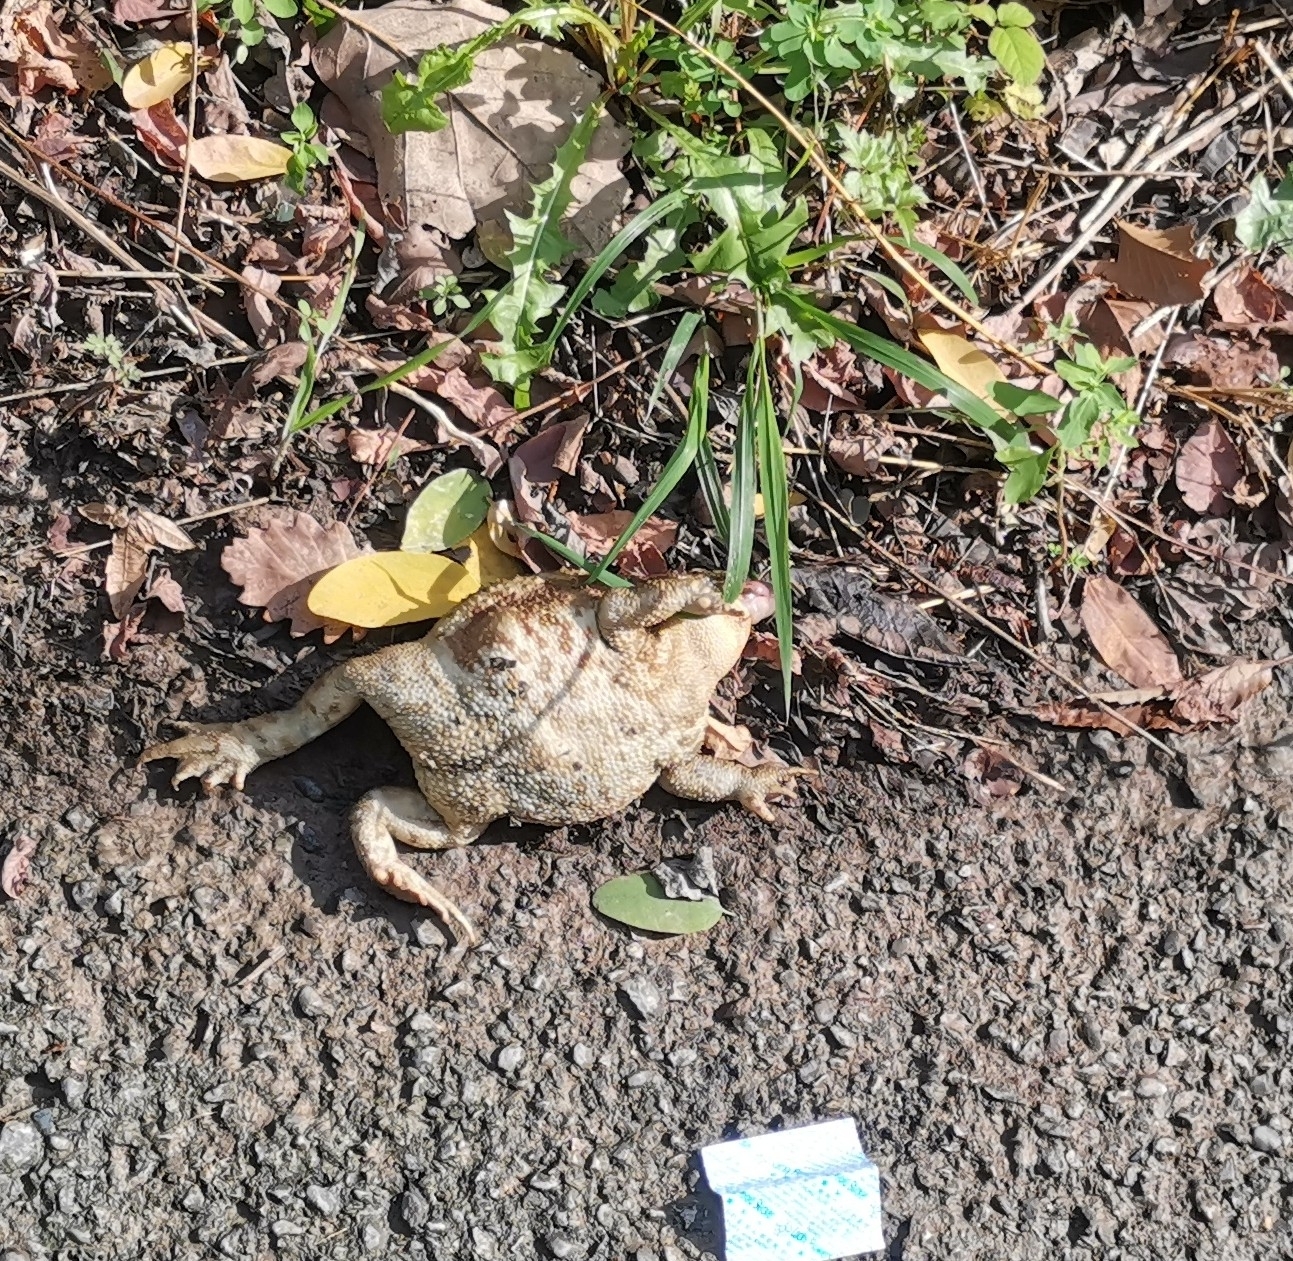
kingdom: Animalia
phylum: Chordata
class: Amphibia
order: Anura
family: Bufonidae
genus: Bufo
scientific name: Bufo bufo
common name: Common toad
